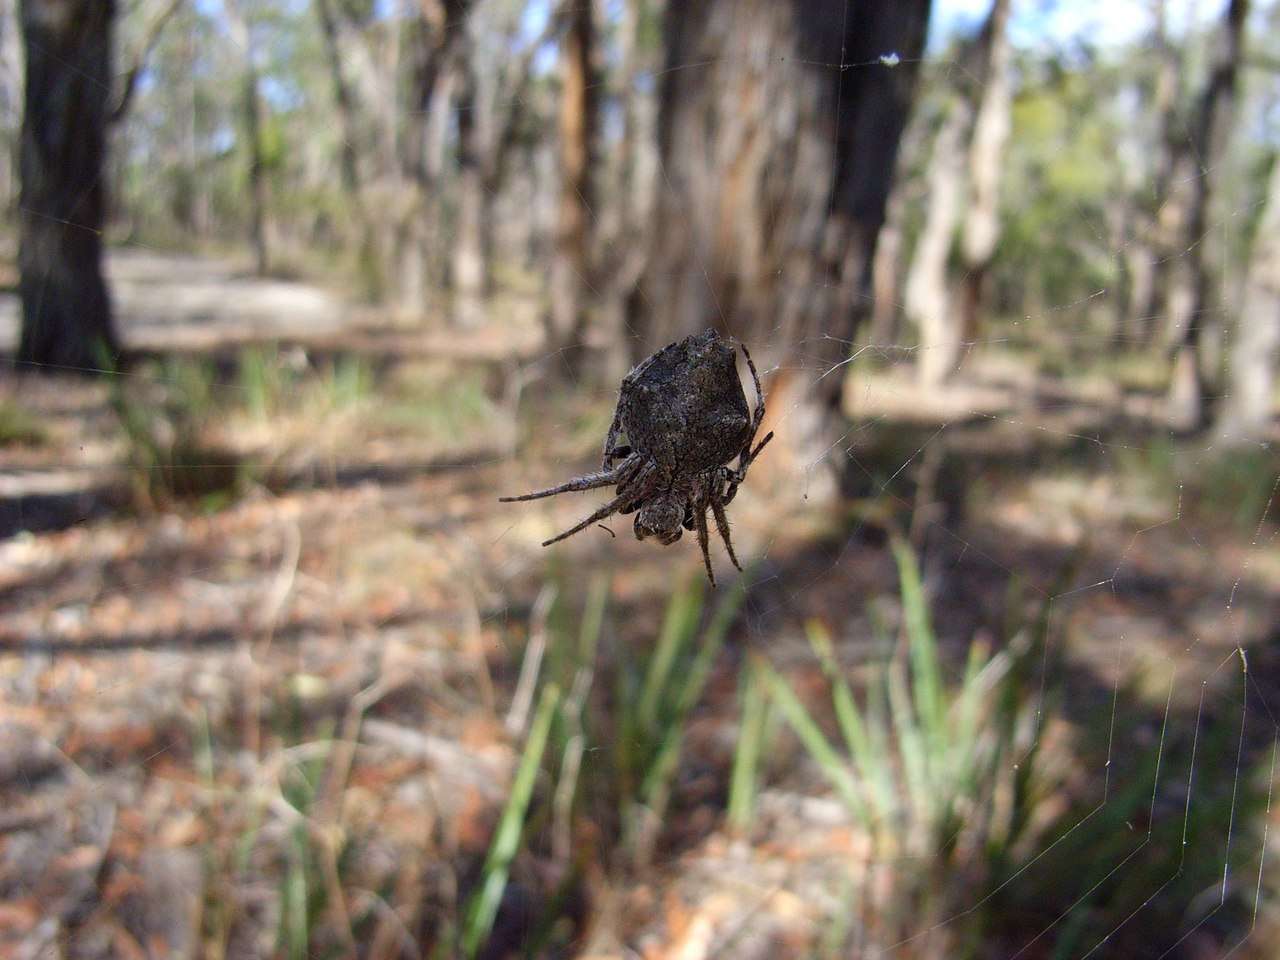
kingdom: Animalia
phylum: Arthropoda
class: Arachnida
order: Araneae
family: Araneidae
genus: Eriophora
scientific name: Eriophora pustulosa
